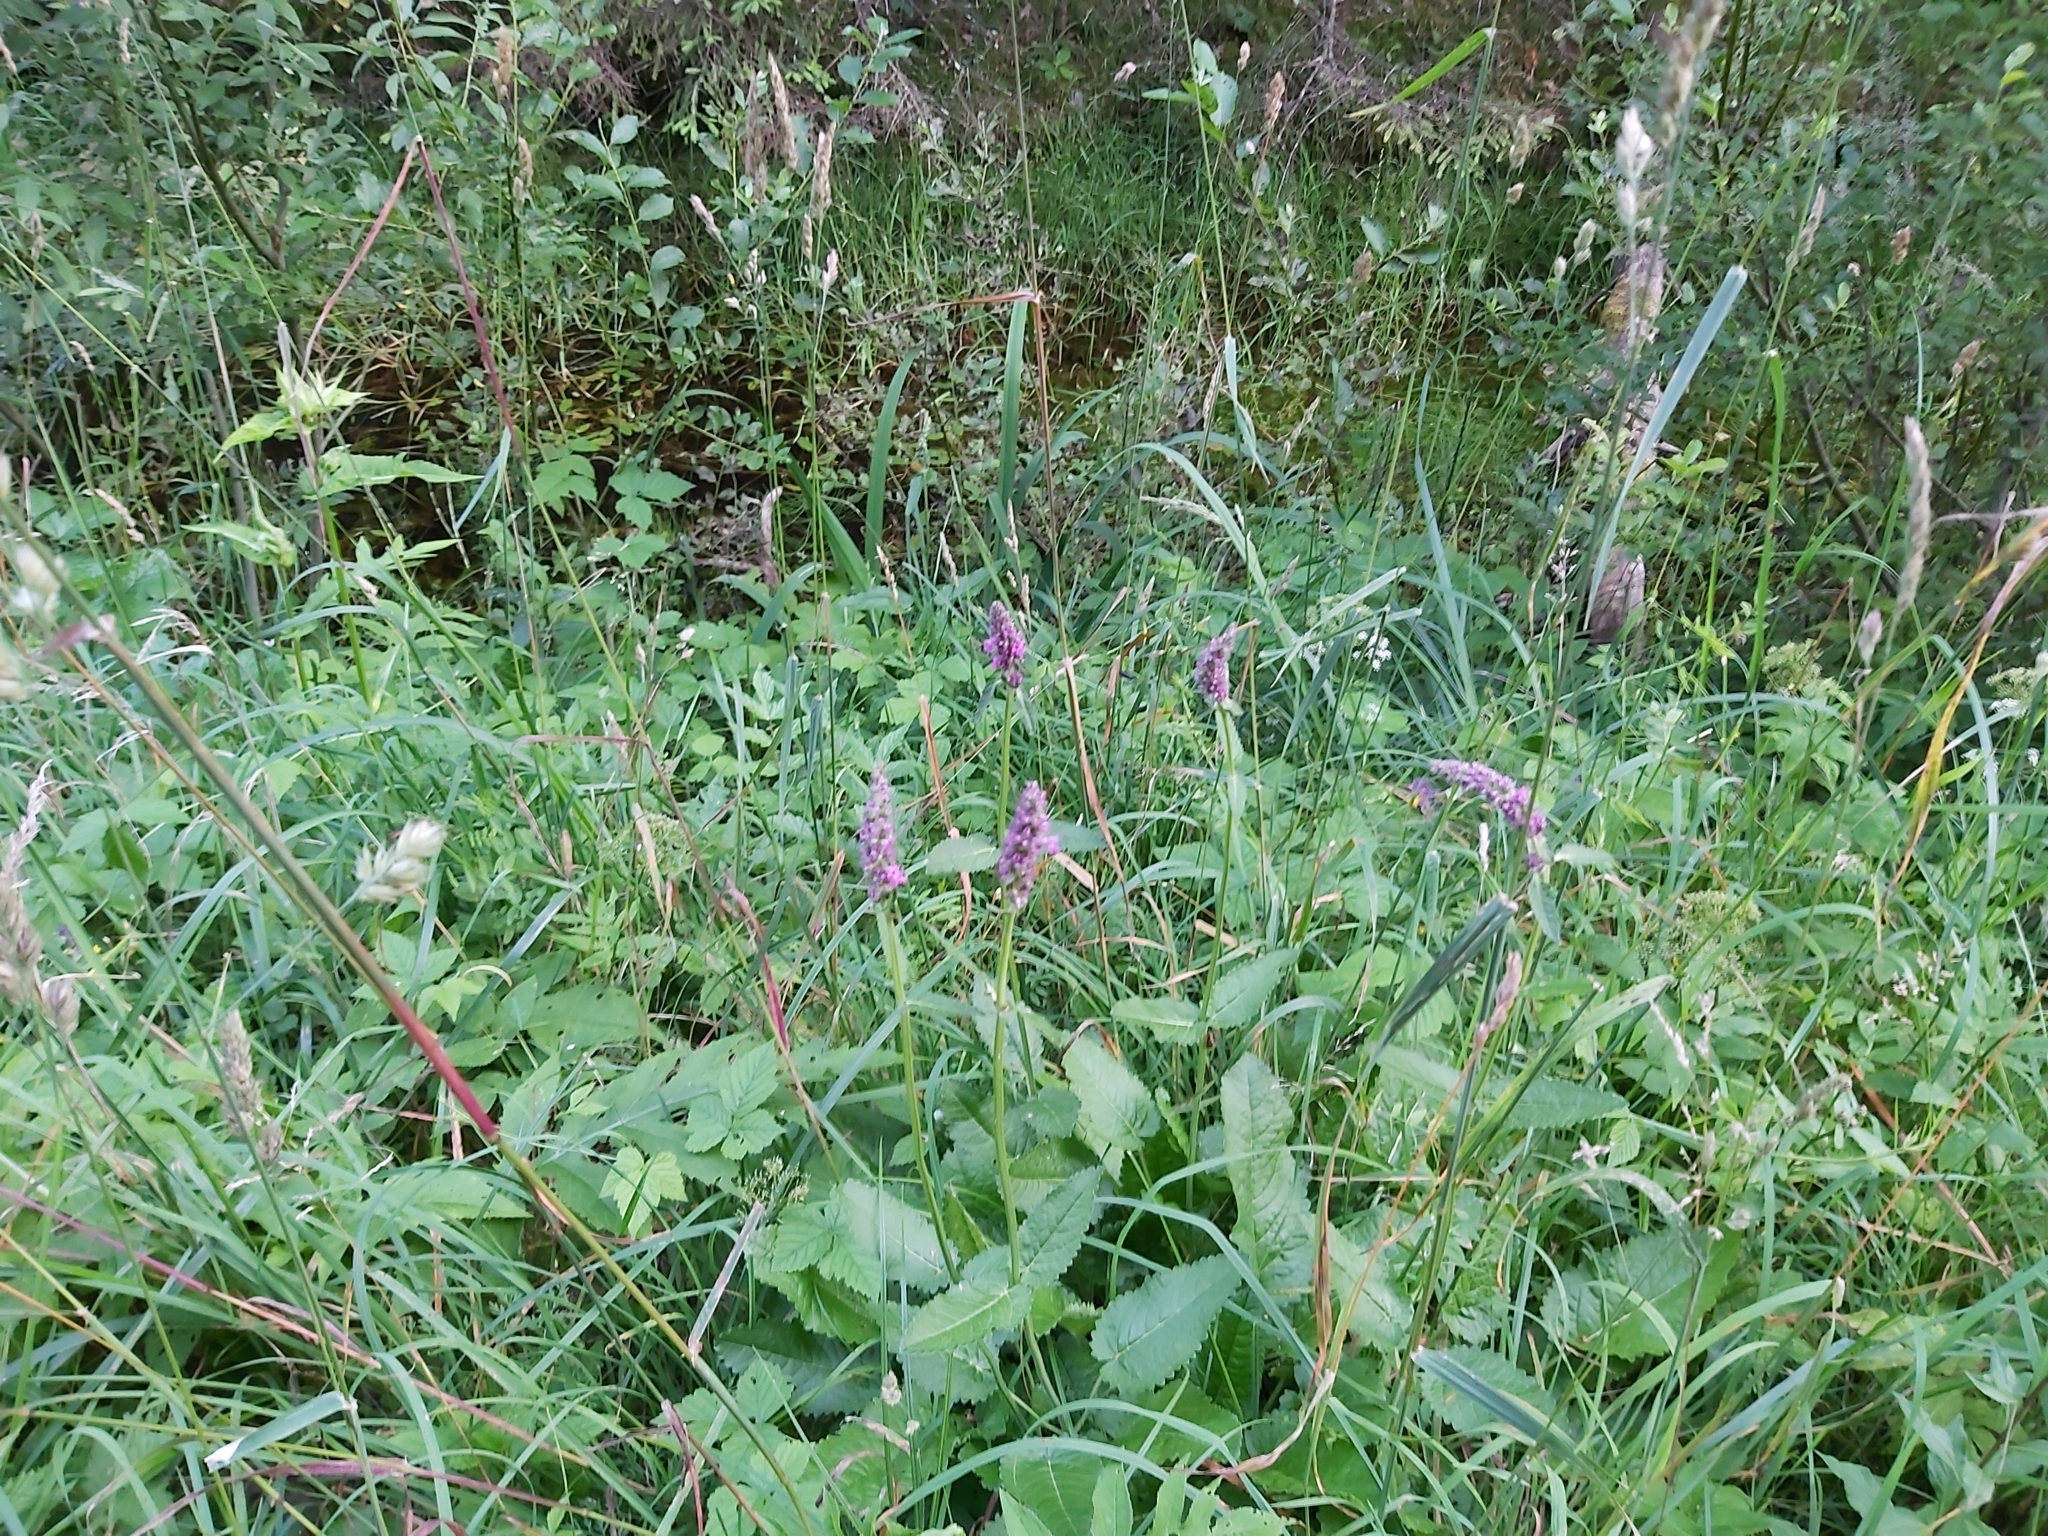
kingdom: Plantae
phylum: Tracheophyta
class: Magnoliopsida
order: Lamiales
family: Lamiaceae
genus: Betonica
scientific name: Betonica officinalis
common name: Bishop's-wort
